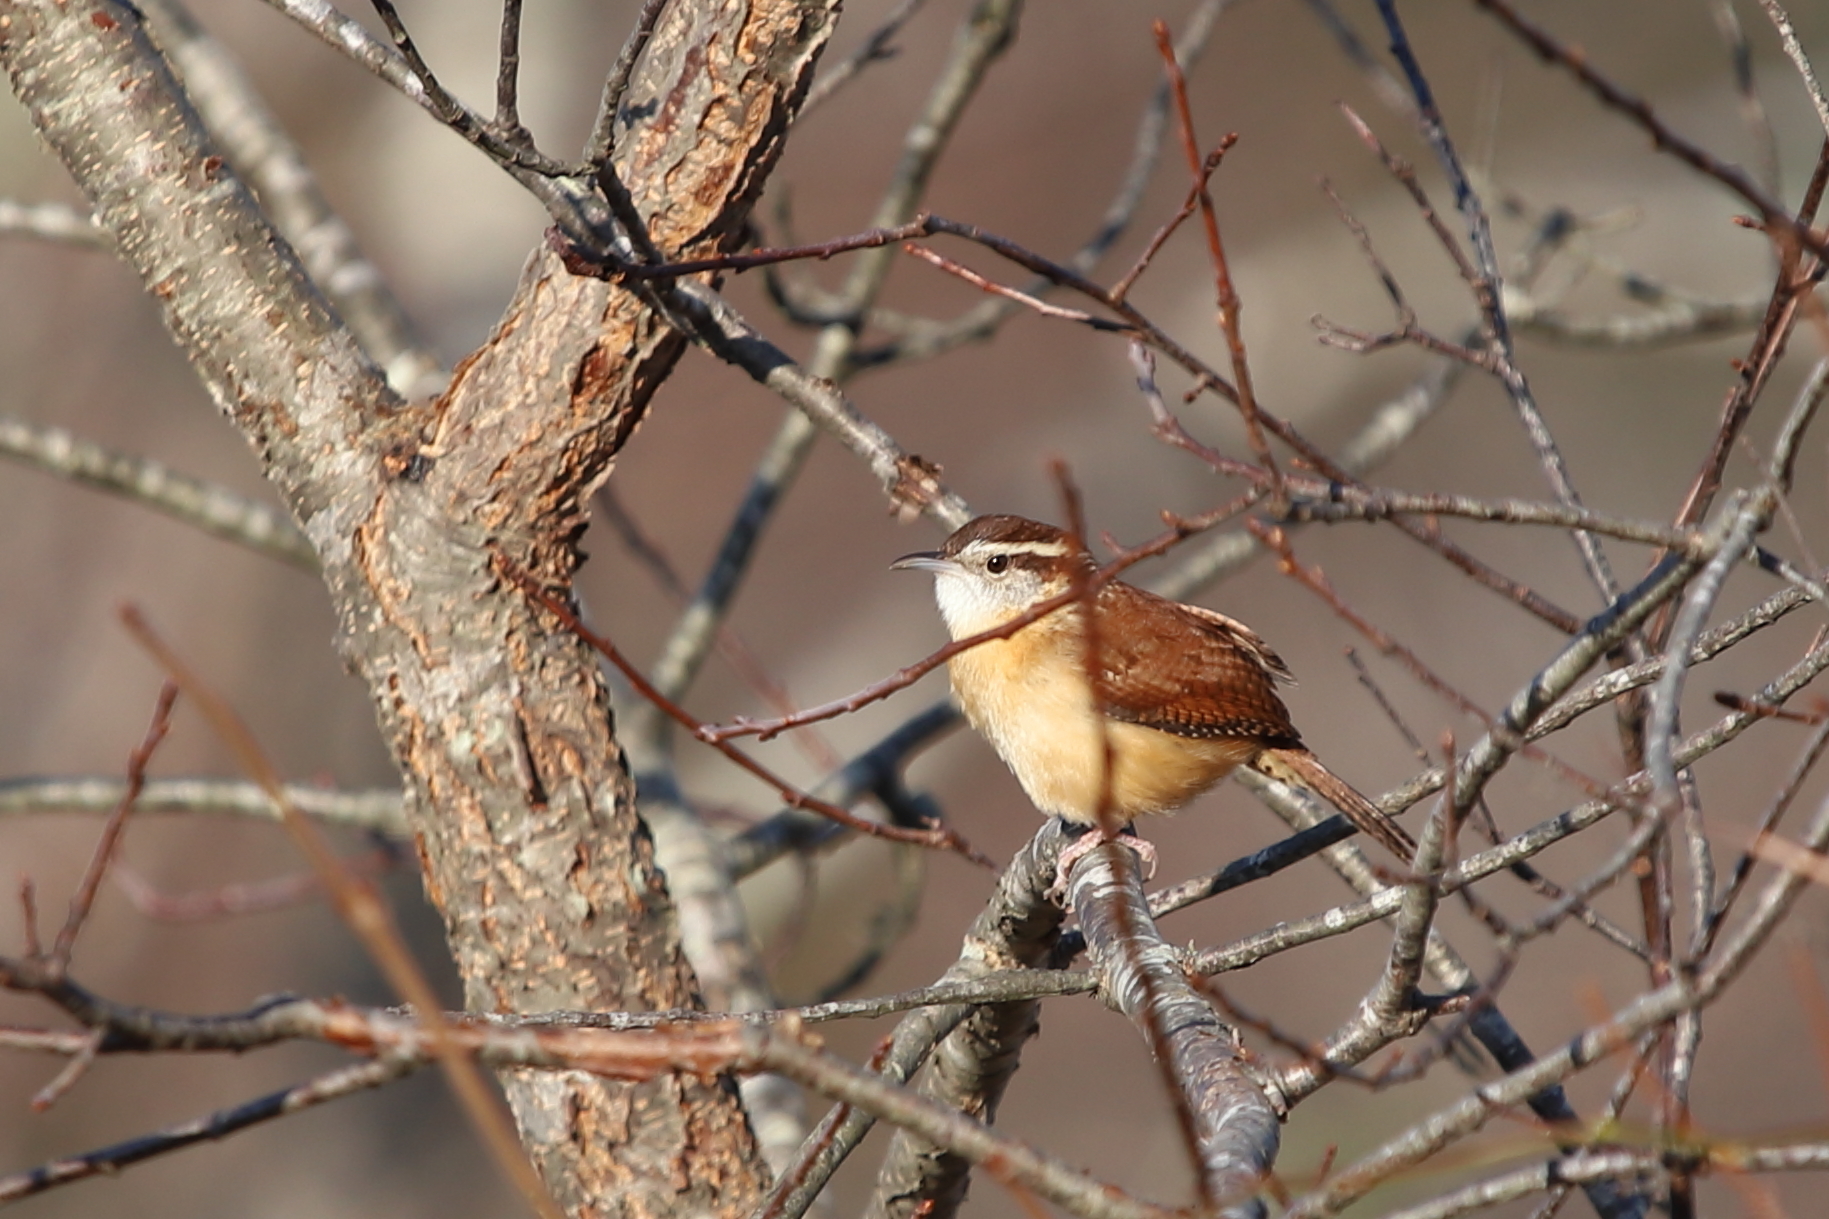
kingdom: Animalia
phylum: Chordata
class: Aves
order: Passeriformes
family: Troglodytidae
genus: Thryothorus
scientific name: Thryothorus ludovicianus
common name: Carolina wren
